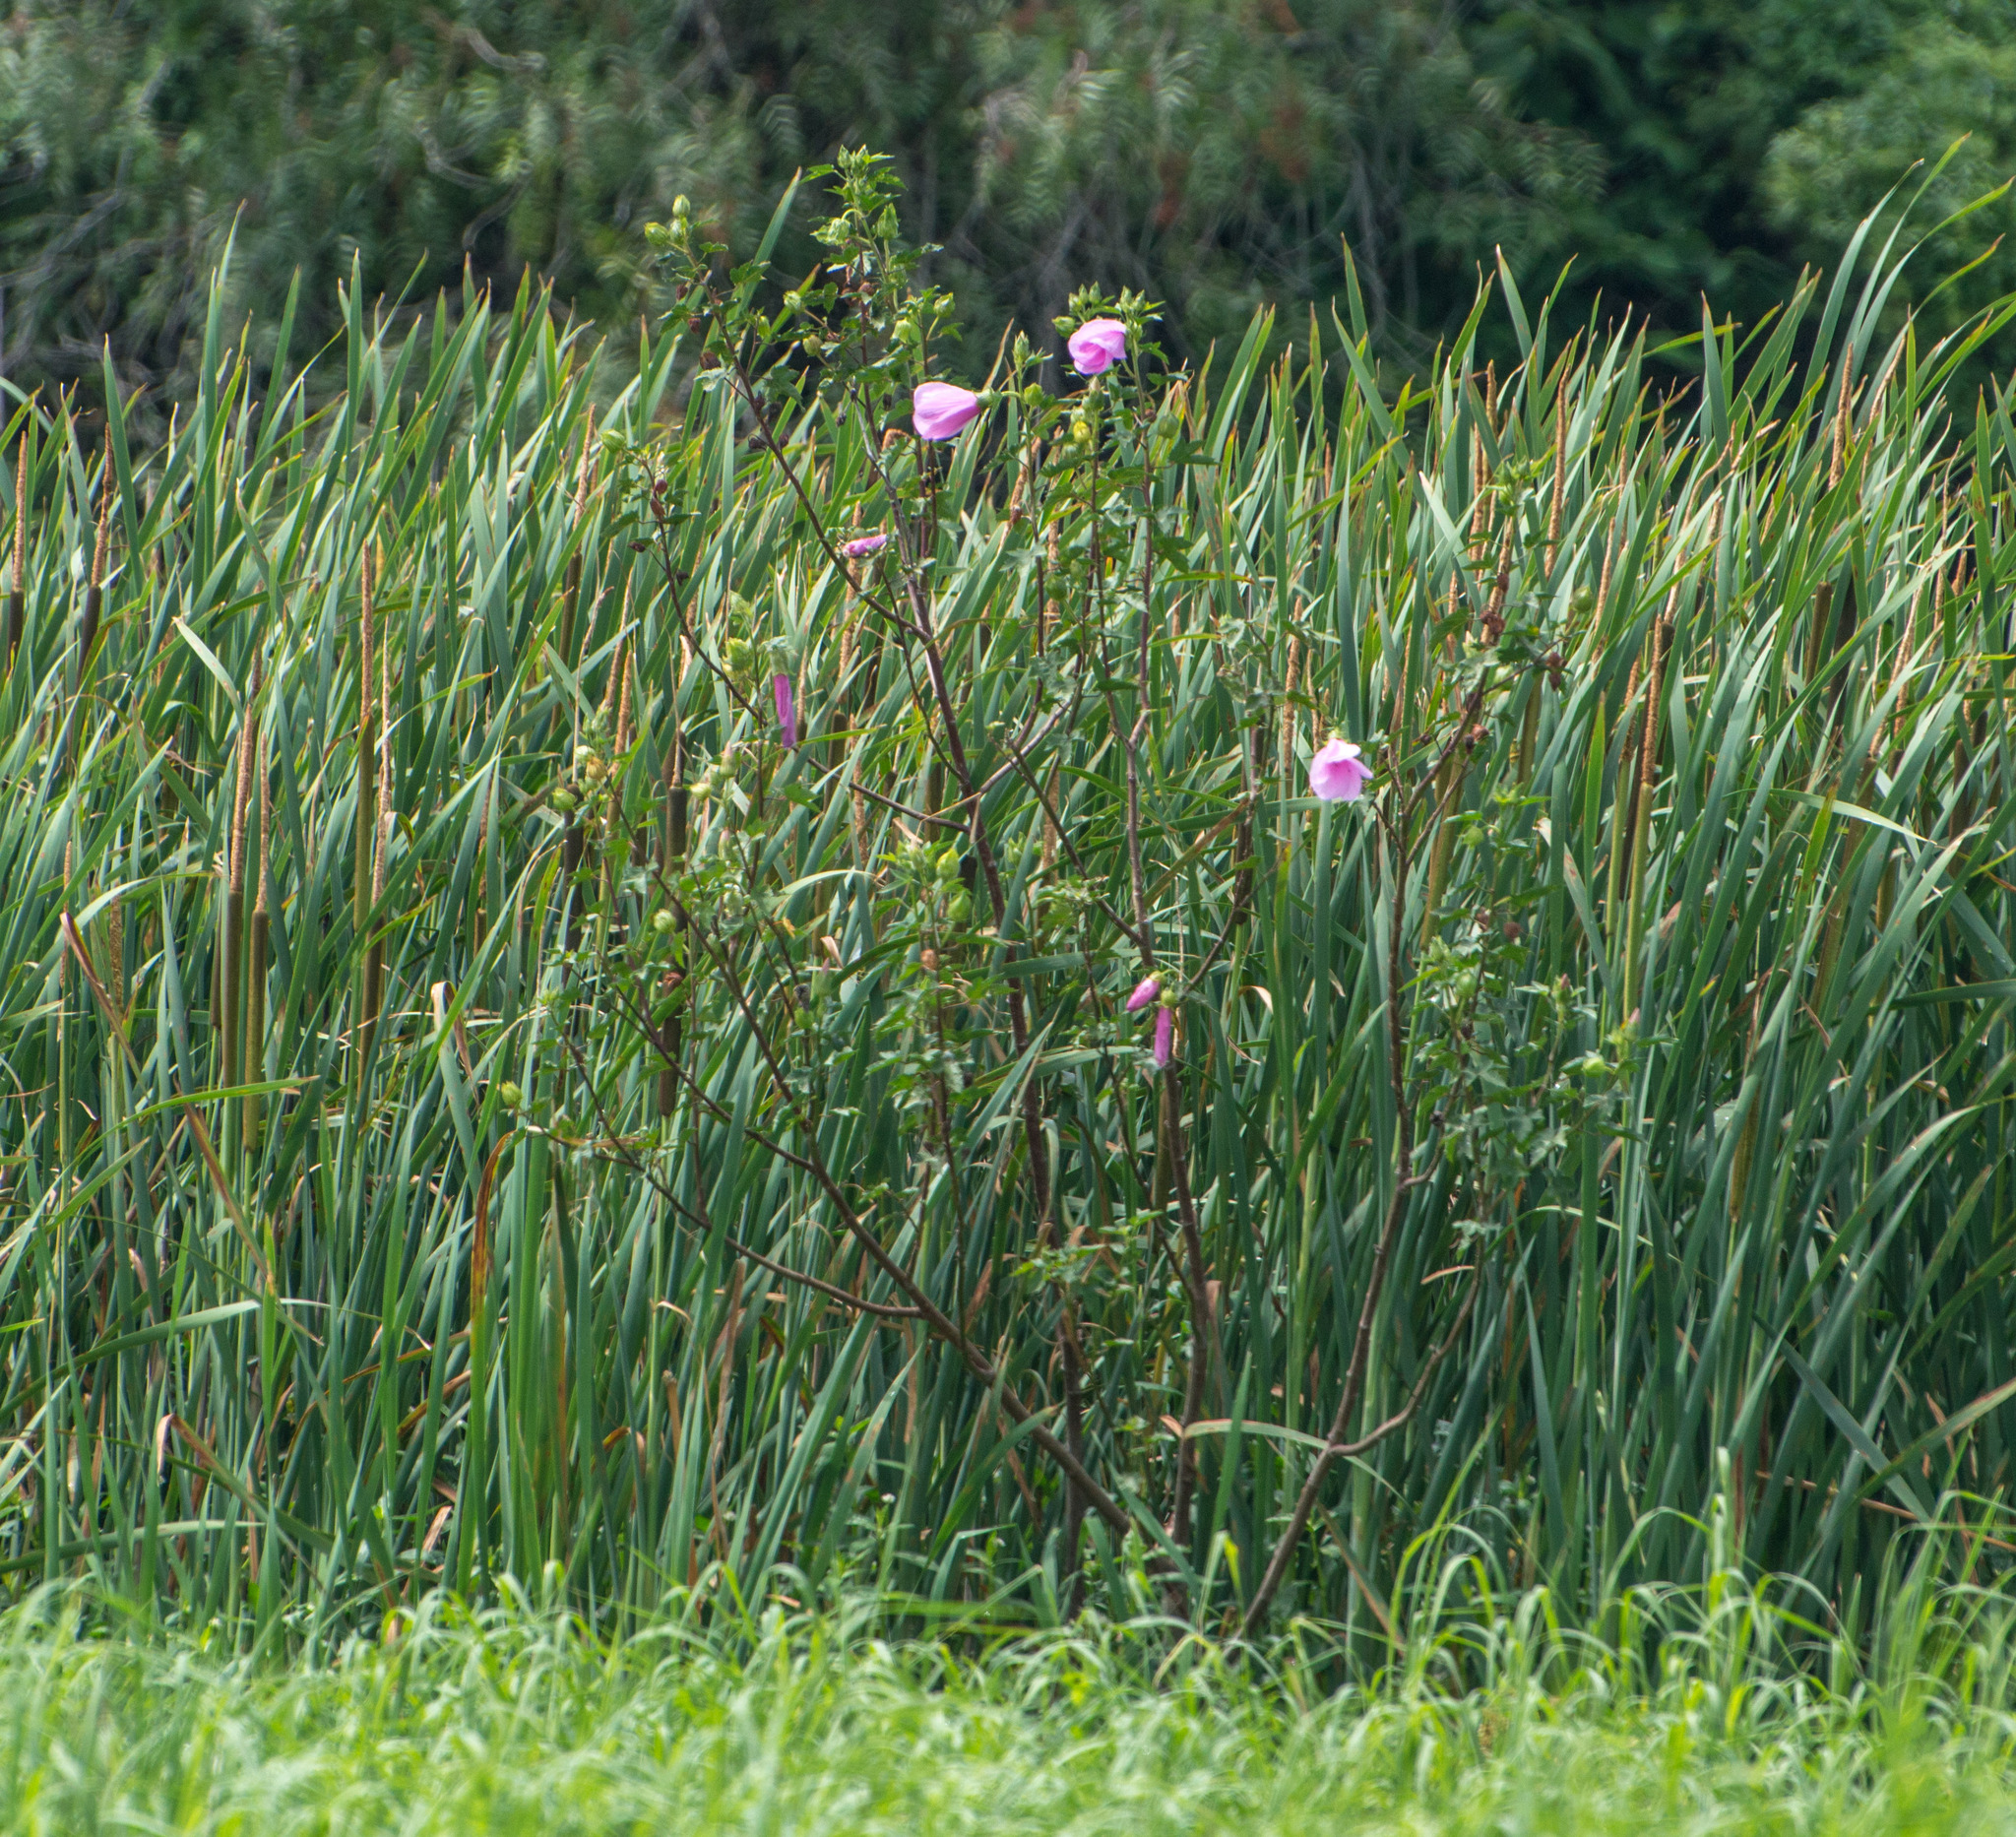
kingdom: Plantae
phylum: Tracheophyta
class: Magnoliopsida
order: Malvales
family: Malvaceae
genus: Hibiscus
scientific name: Hibiscus striatus
